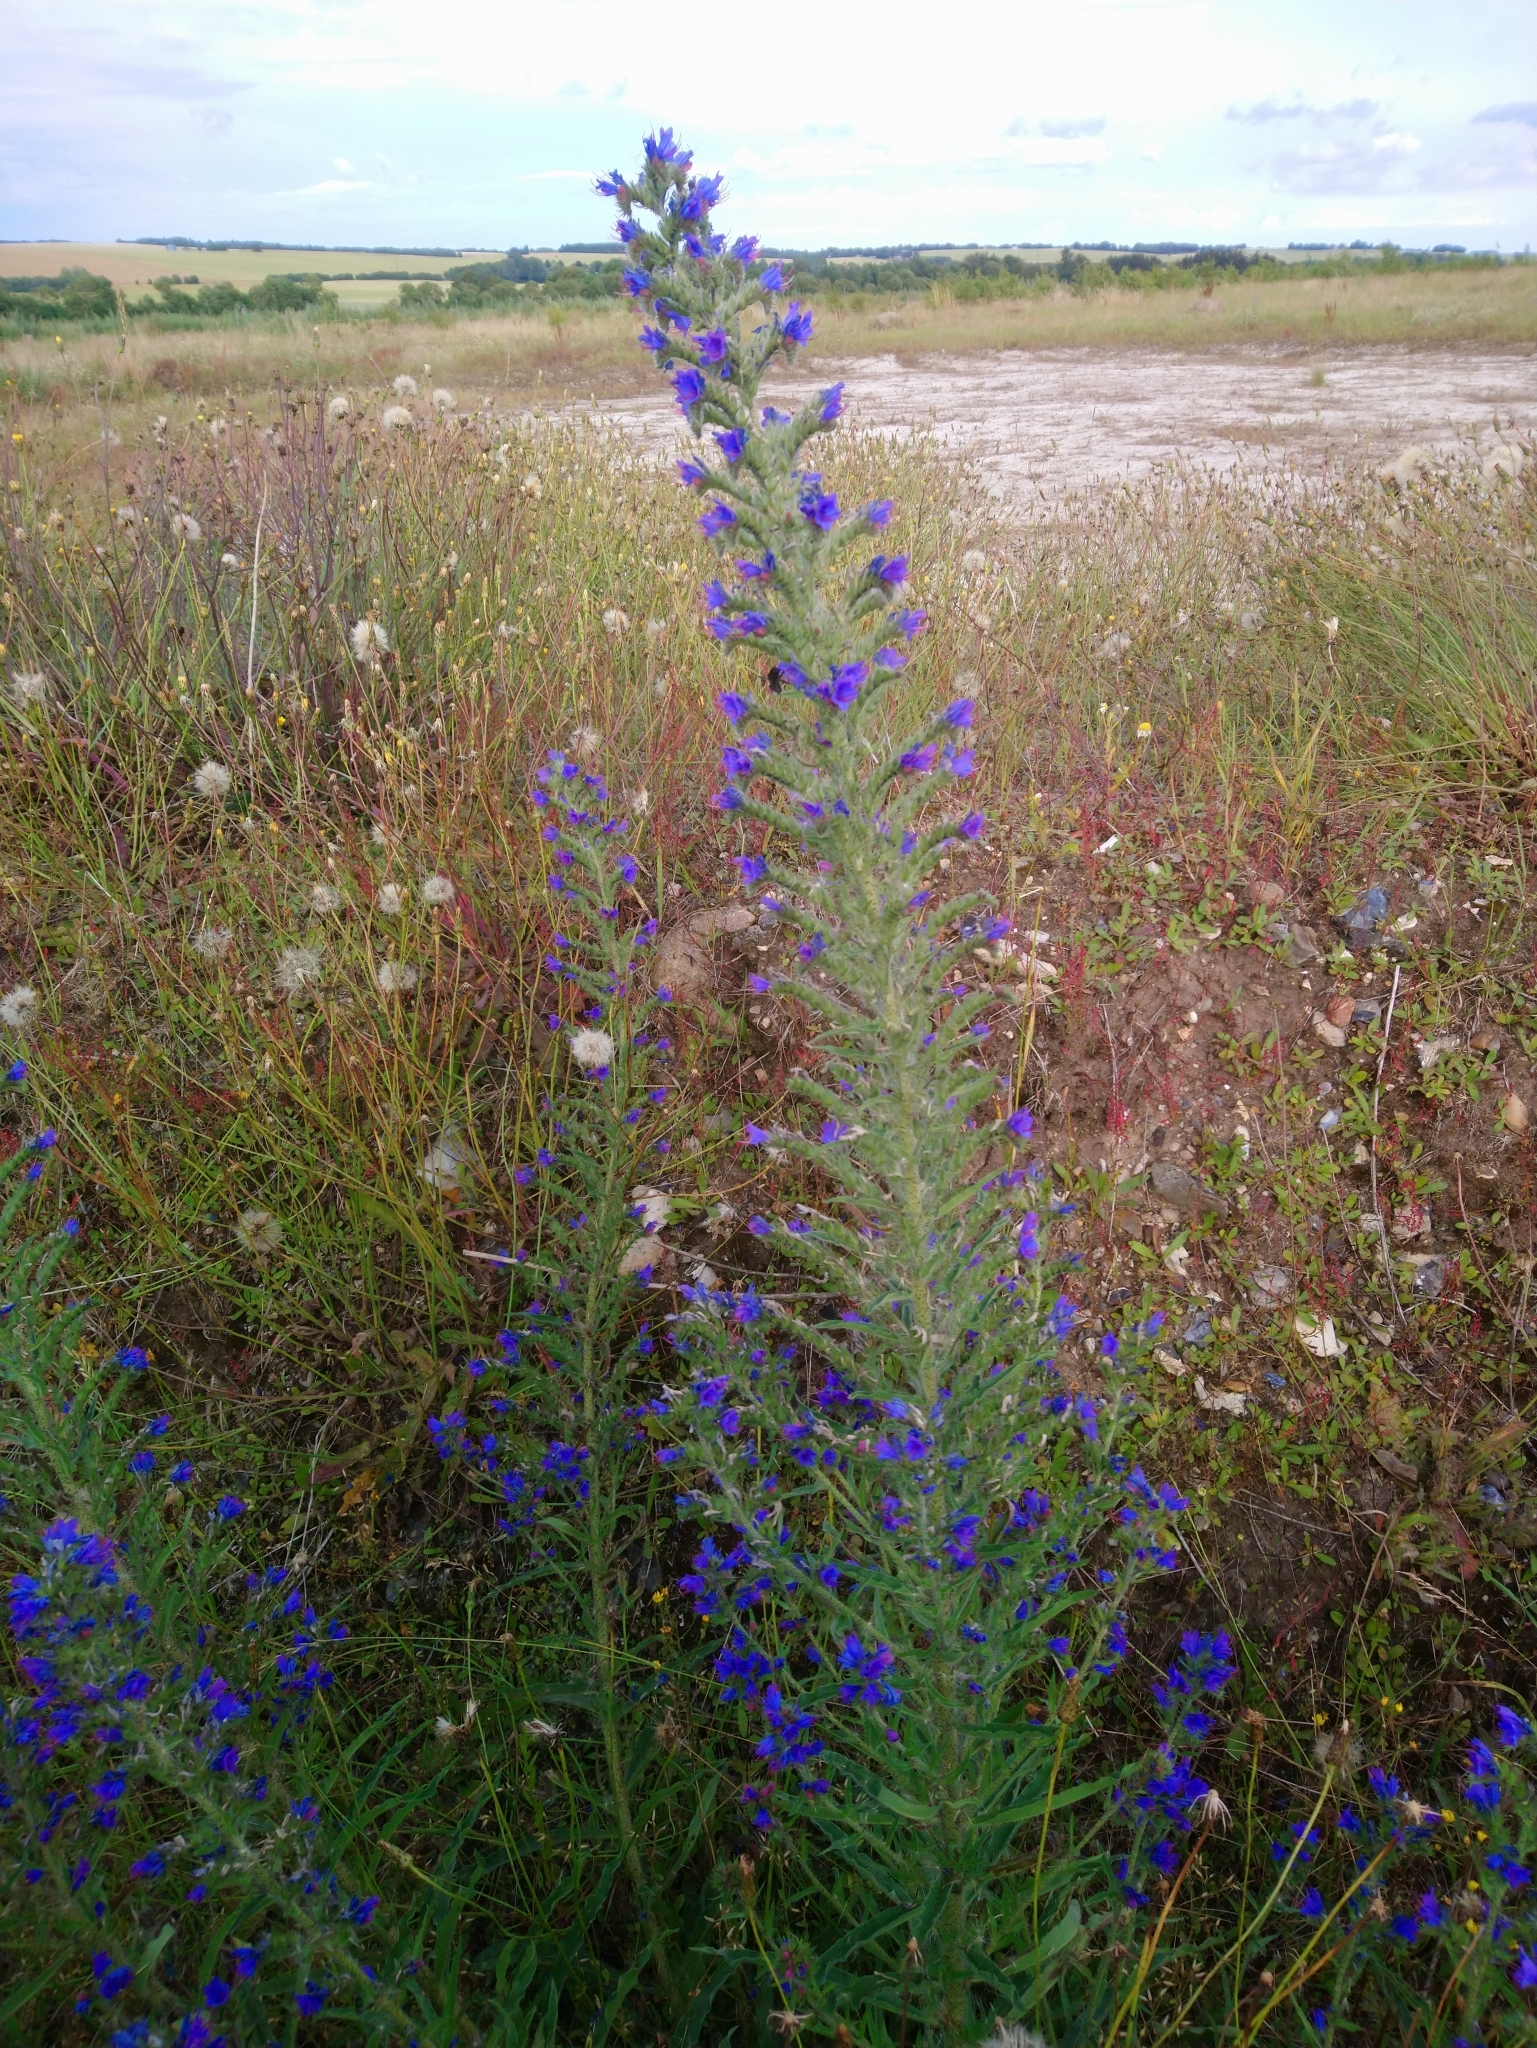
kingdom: Plantae
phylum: Tracheophyta
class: Magnoliopsida
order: Boraginales
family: Boraginaceae
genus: Echium
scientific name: Echium vulgare
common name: Common viper's bugloss
